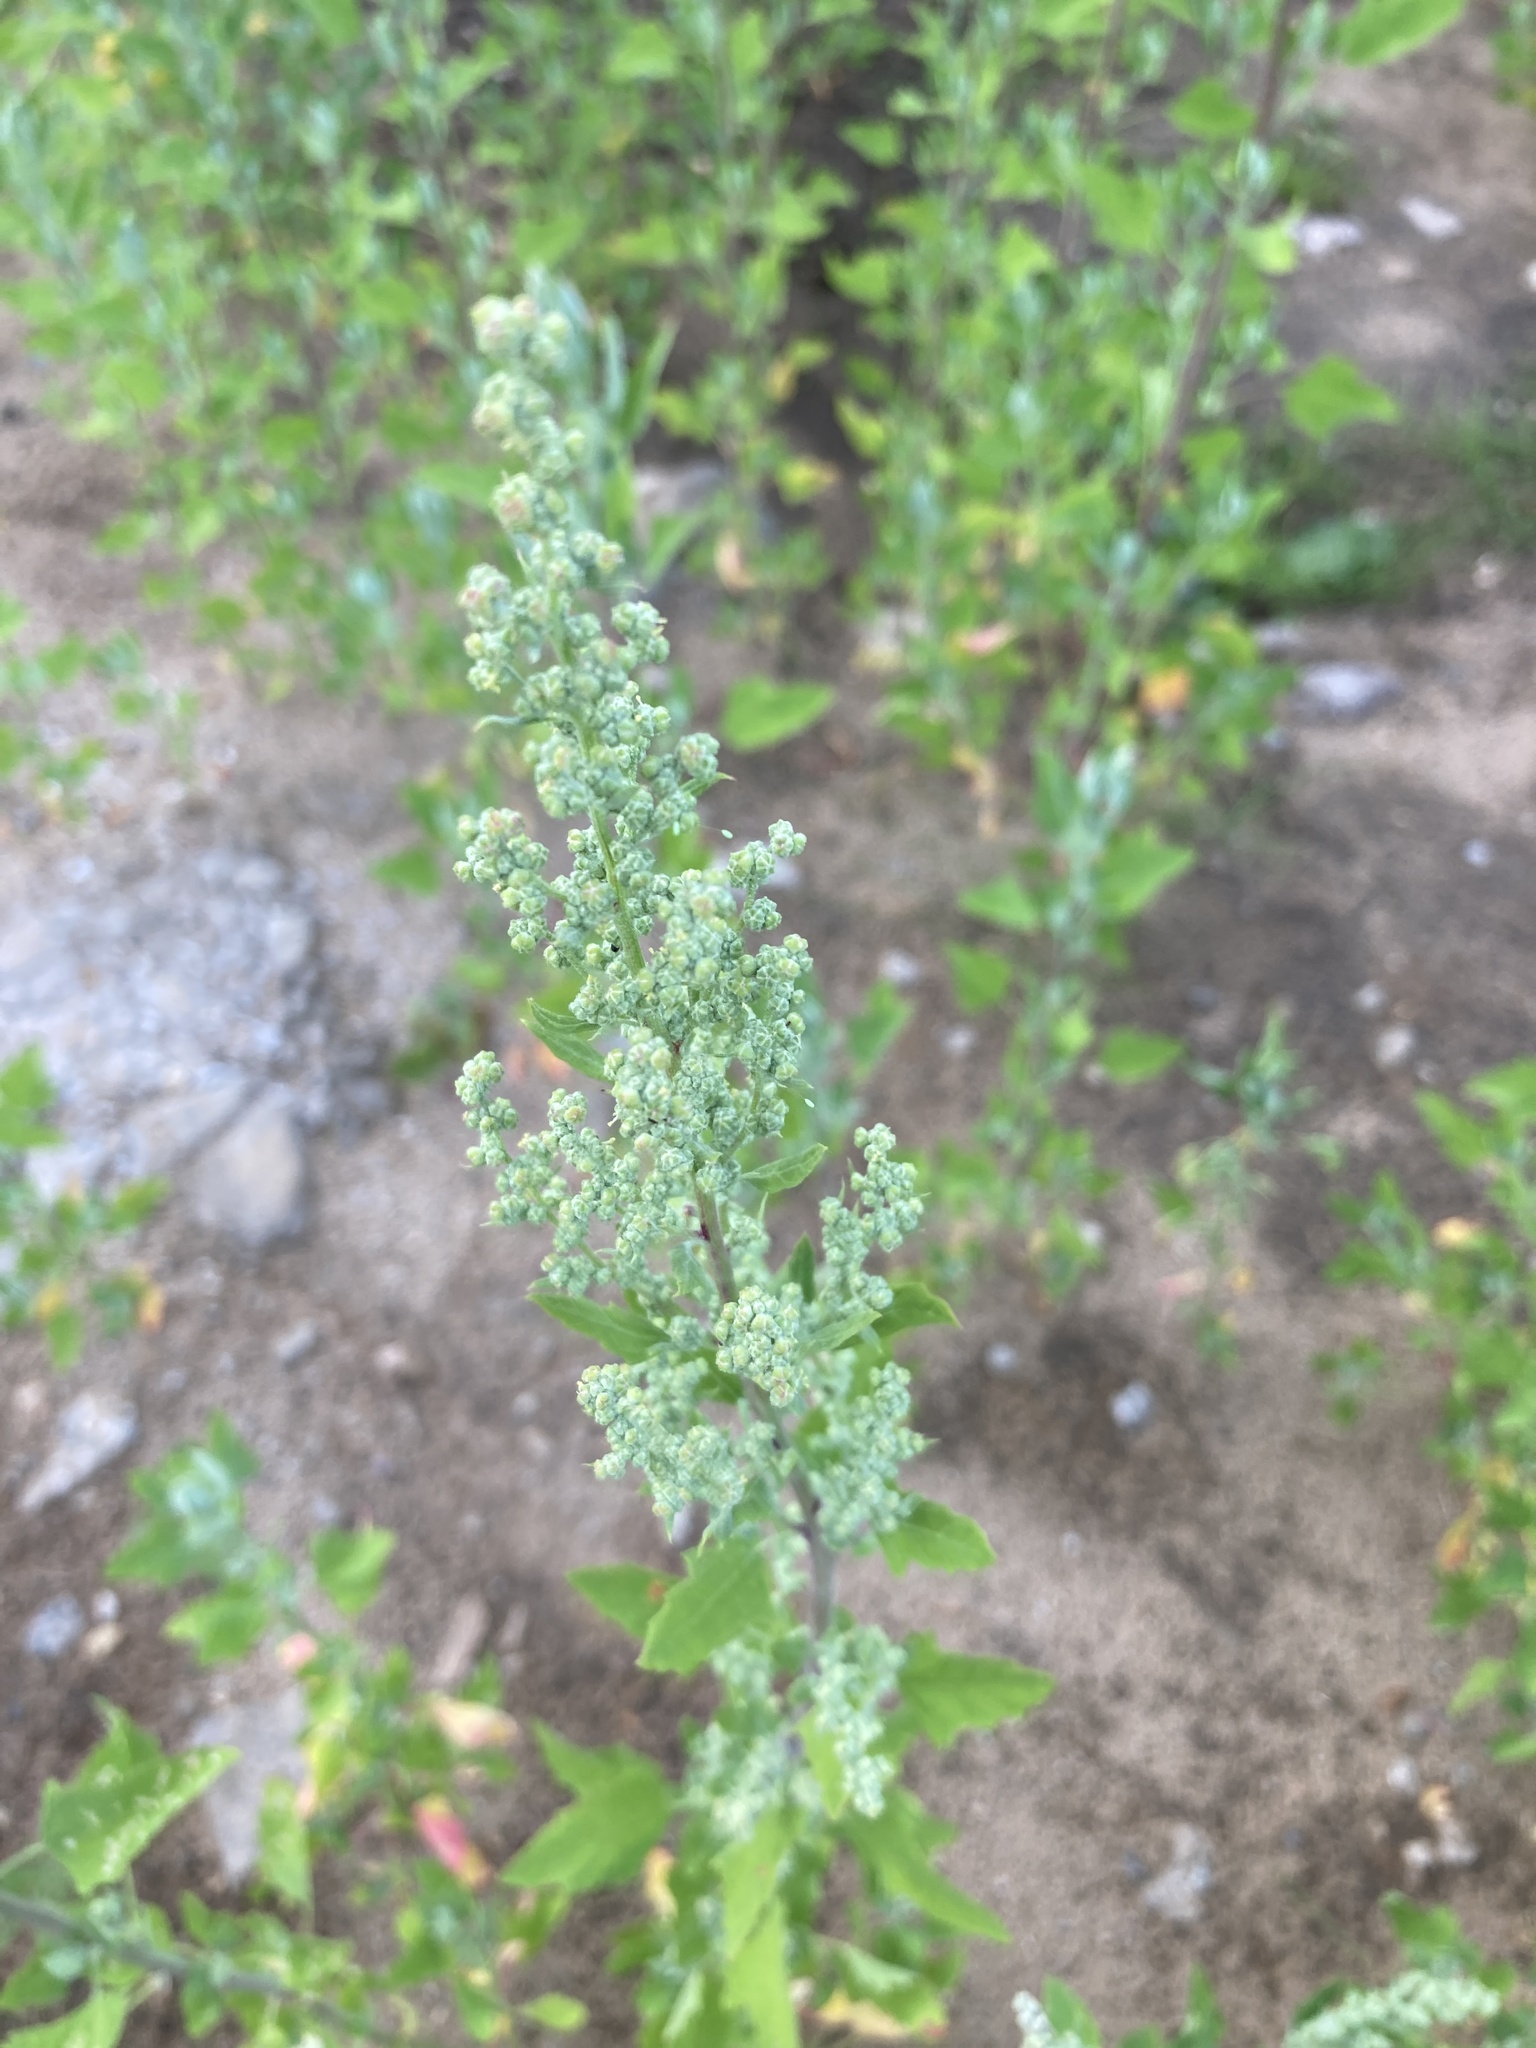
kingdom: Plantae
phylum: Tracheophyta
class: Magnoliopsida
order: Caryophyllales
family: Amaranthaceae
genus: Chenopodium
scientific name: Chenopodium album
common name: Fat-hen
